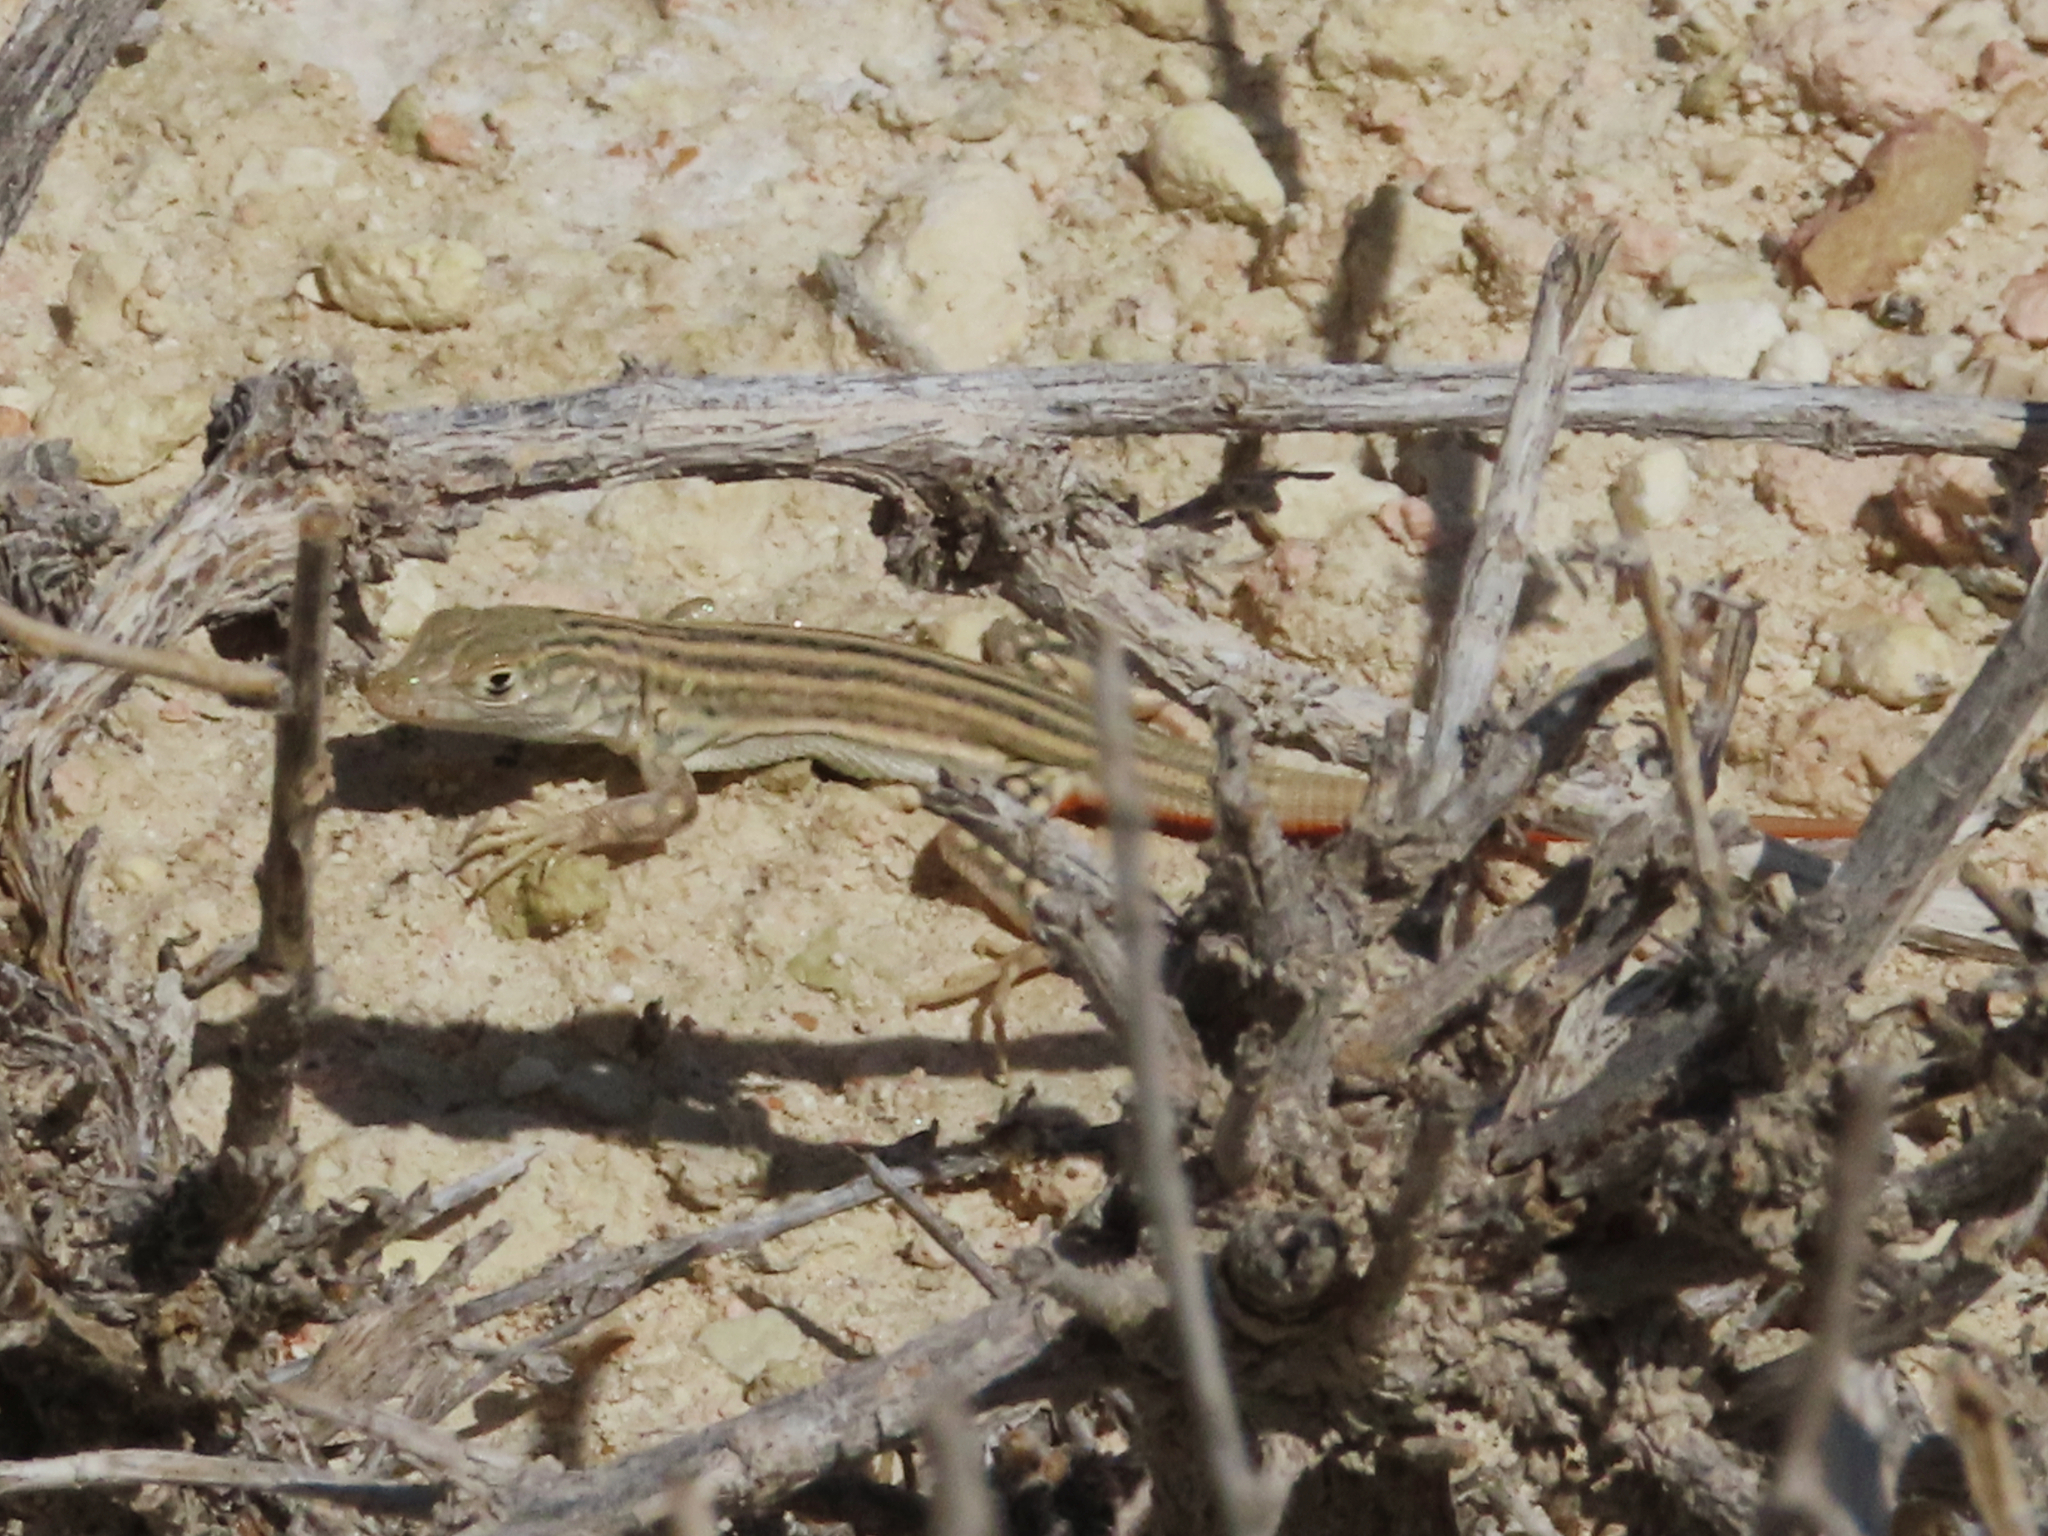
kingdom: Animalia
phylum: Chordata
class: Squamata
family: Lacertidae
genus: Eremias
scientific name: Eremias velox
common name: Central asian racerunner
